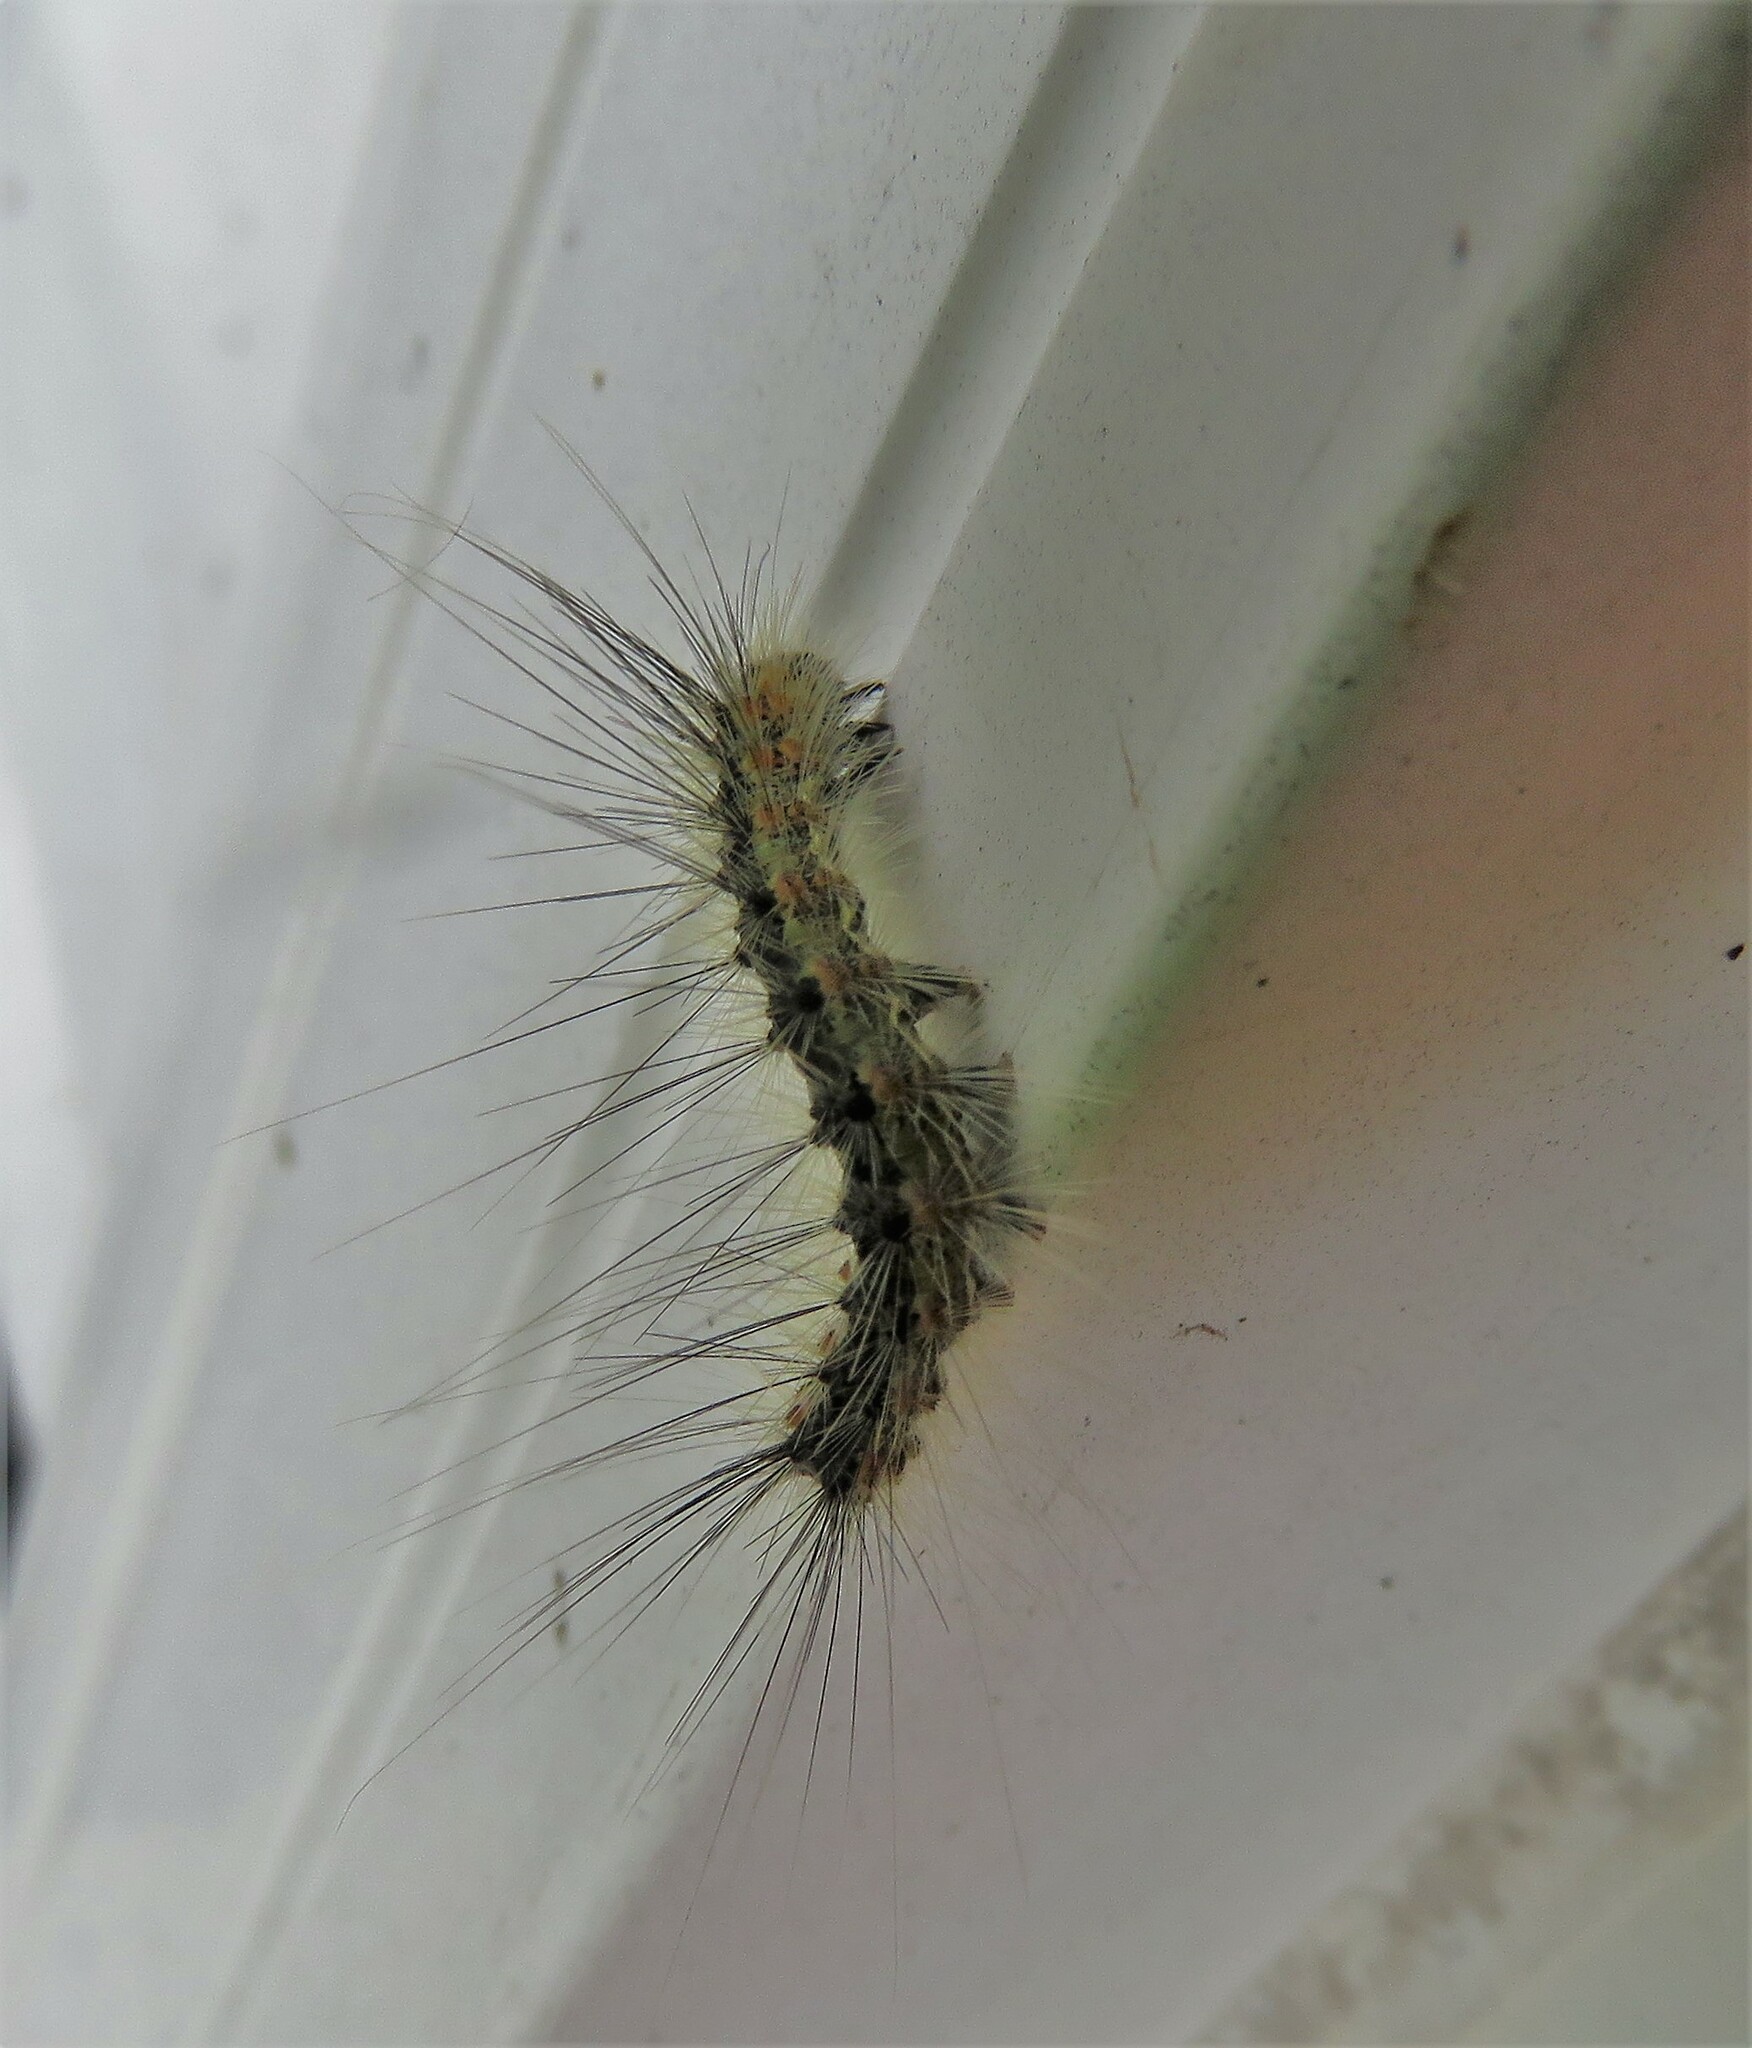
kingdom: Animalia
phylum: Arthropoda
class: Insecta
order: Lepidoptera
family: Erebidae
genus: Hyphantria
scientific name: Hyphantria cunea
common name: American white moth
